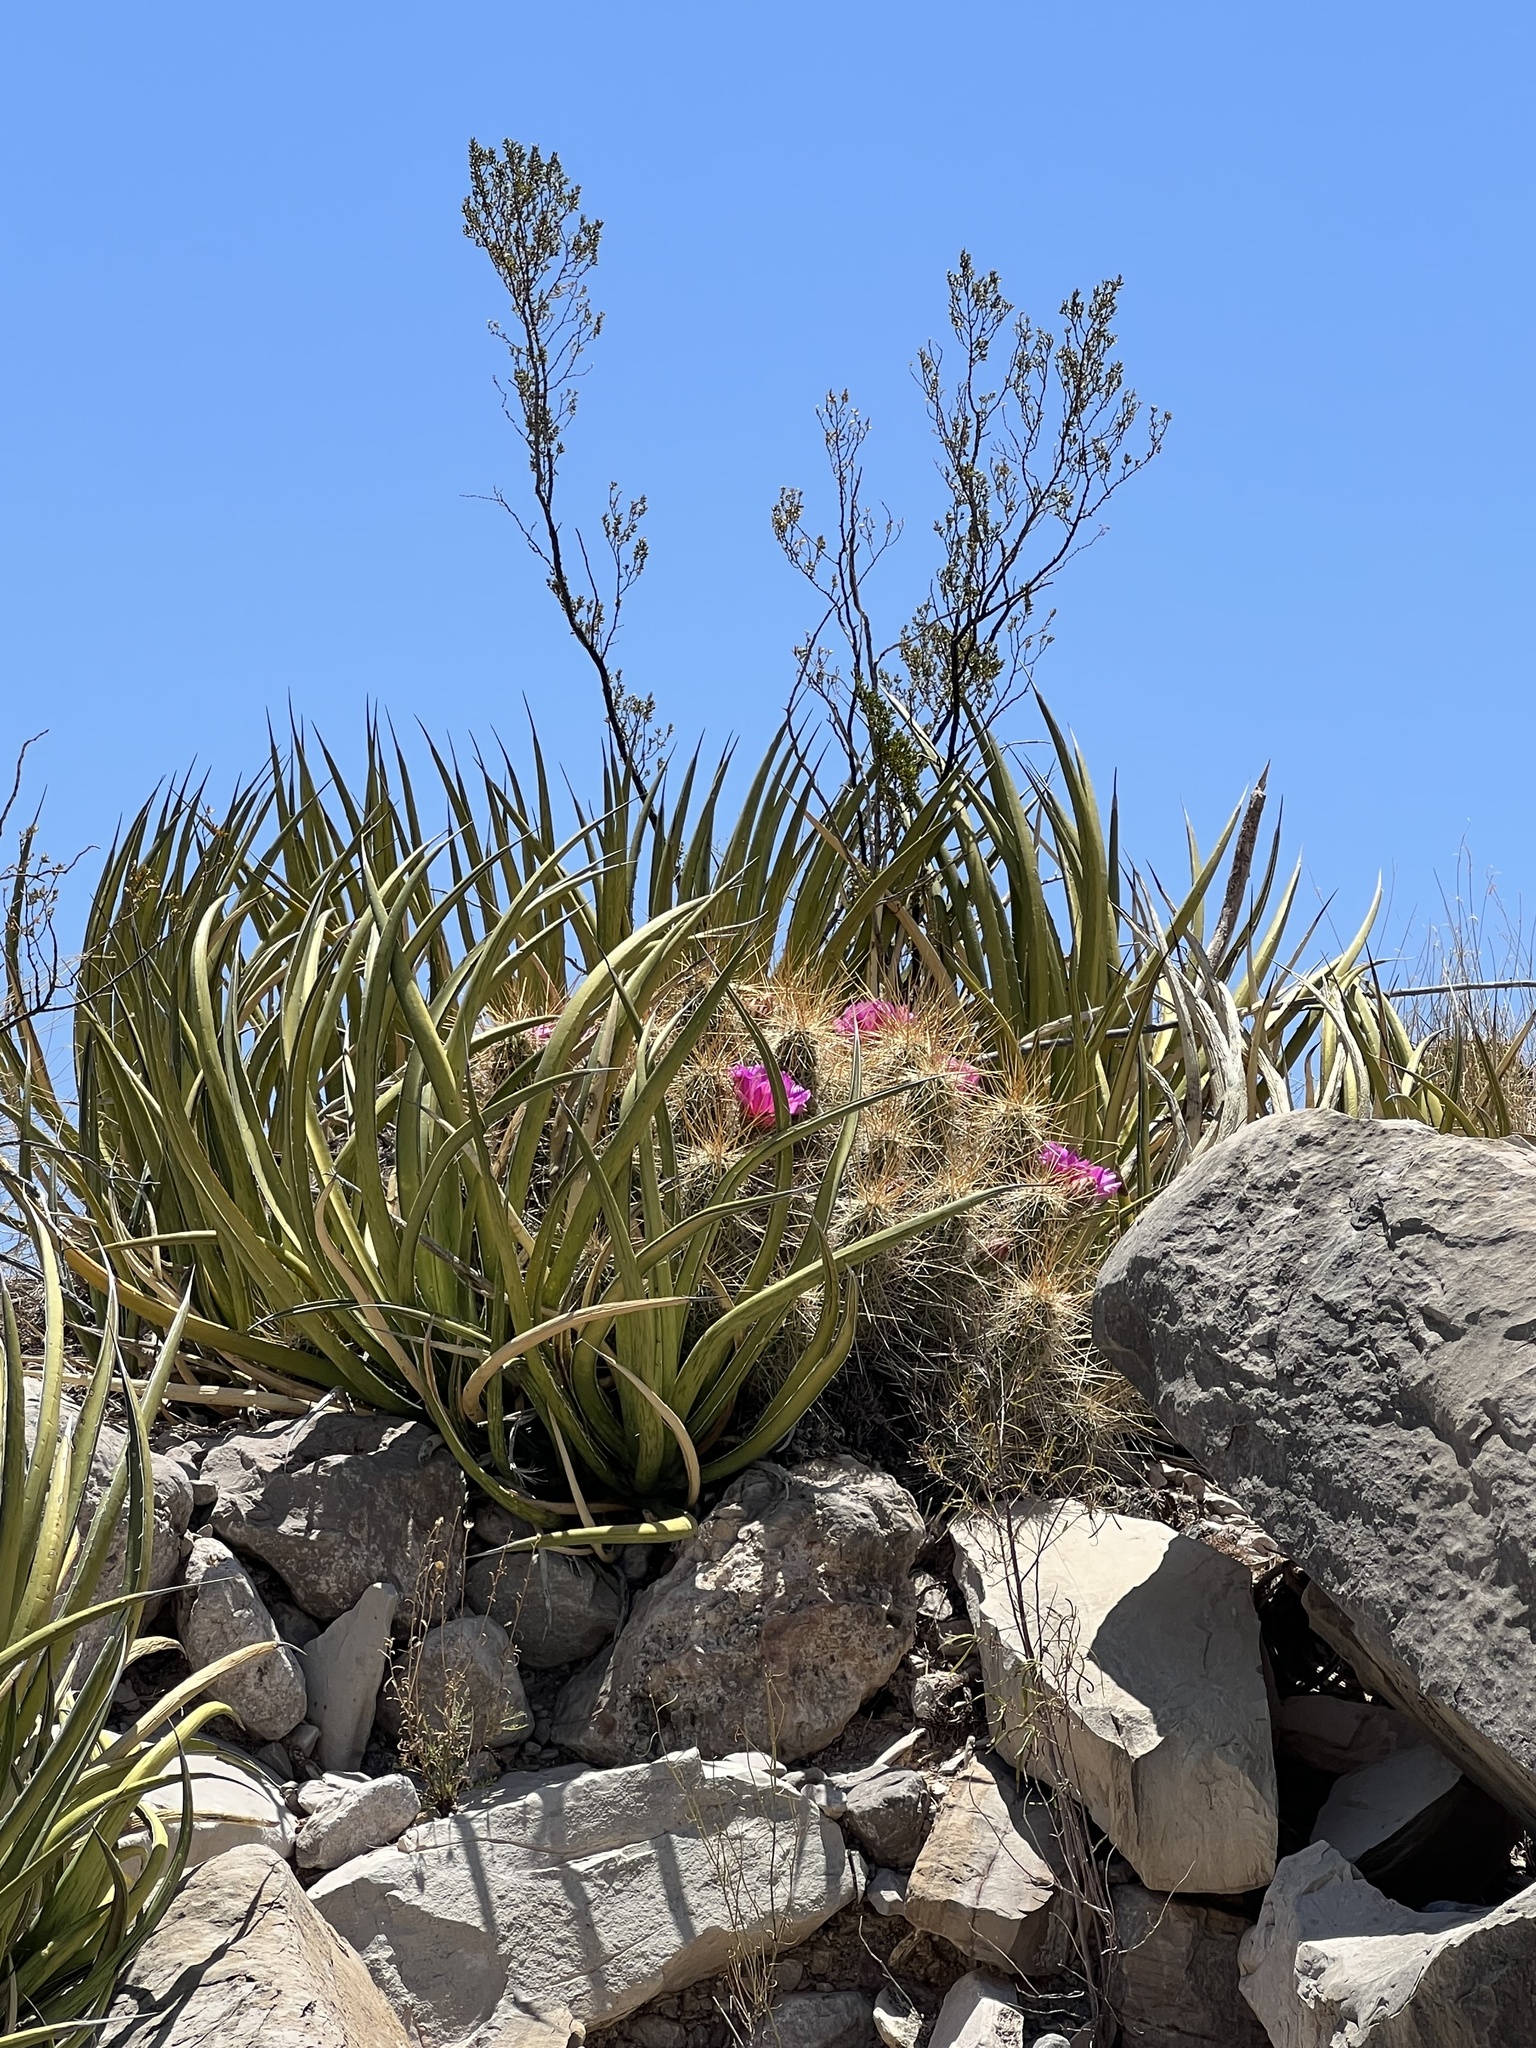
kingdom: Plantae
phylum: Tracheophyta
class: Liliopsida
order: Asparagales
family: Asparagaceae
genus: Agave
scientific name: Agave lechuguilla
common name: Lecheguilla agave
